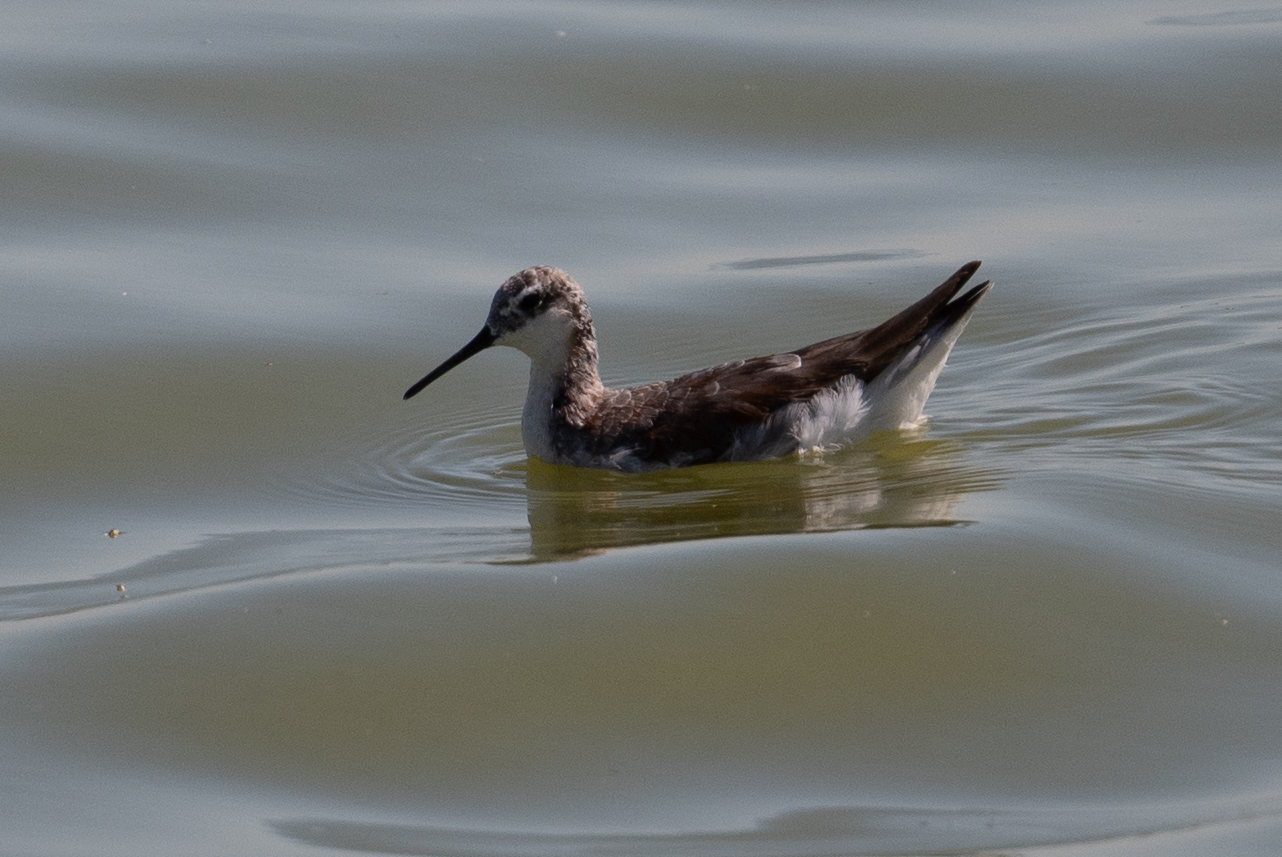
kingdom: Animalia
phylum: Chordata
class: Aves
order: Charadriiformes
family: Scolopacidae
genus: Phalaropus
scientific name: Phalaropus tricolor
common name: Wilson's phalarope
